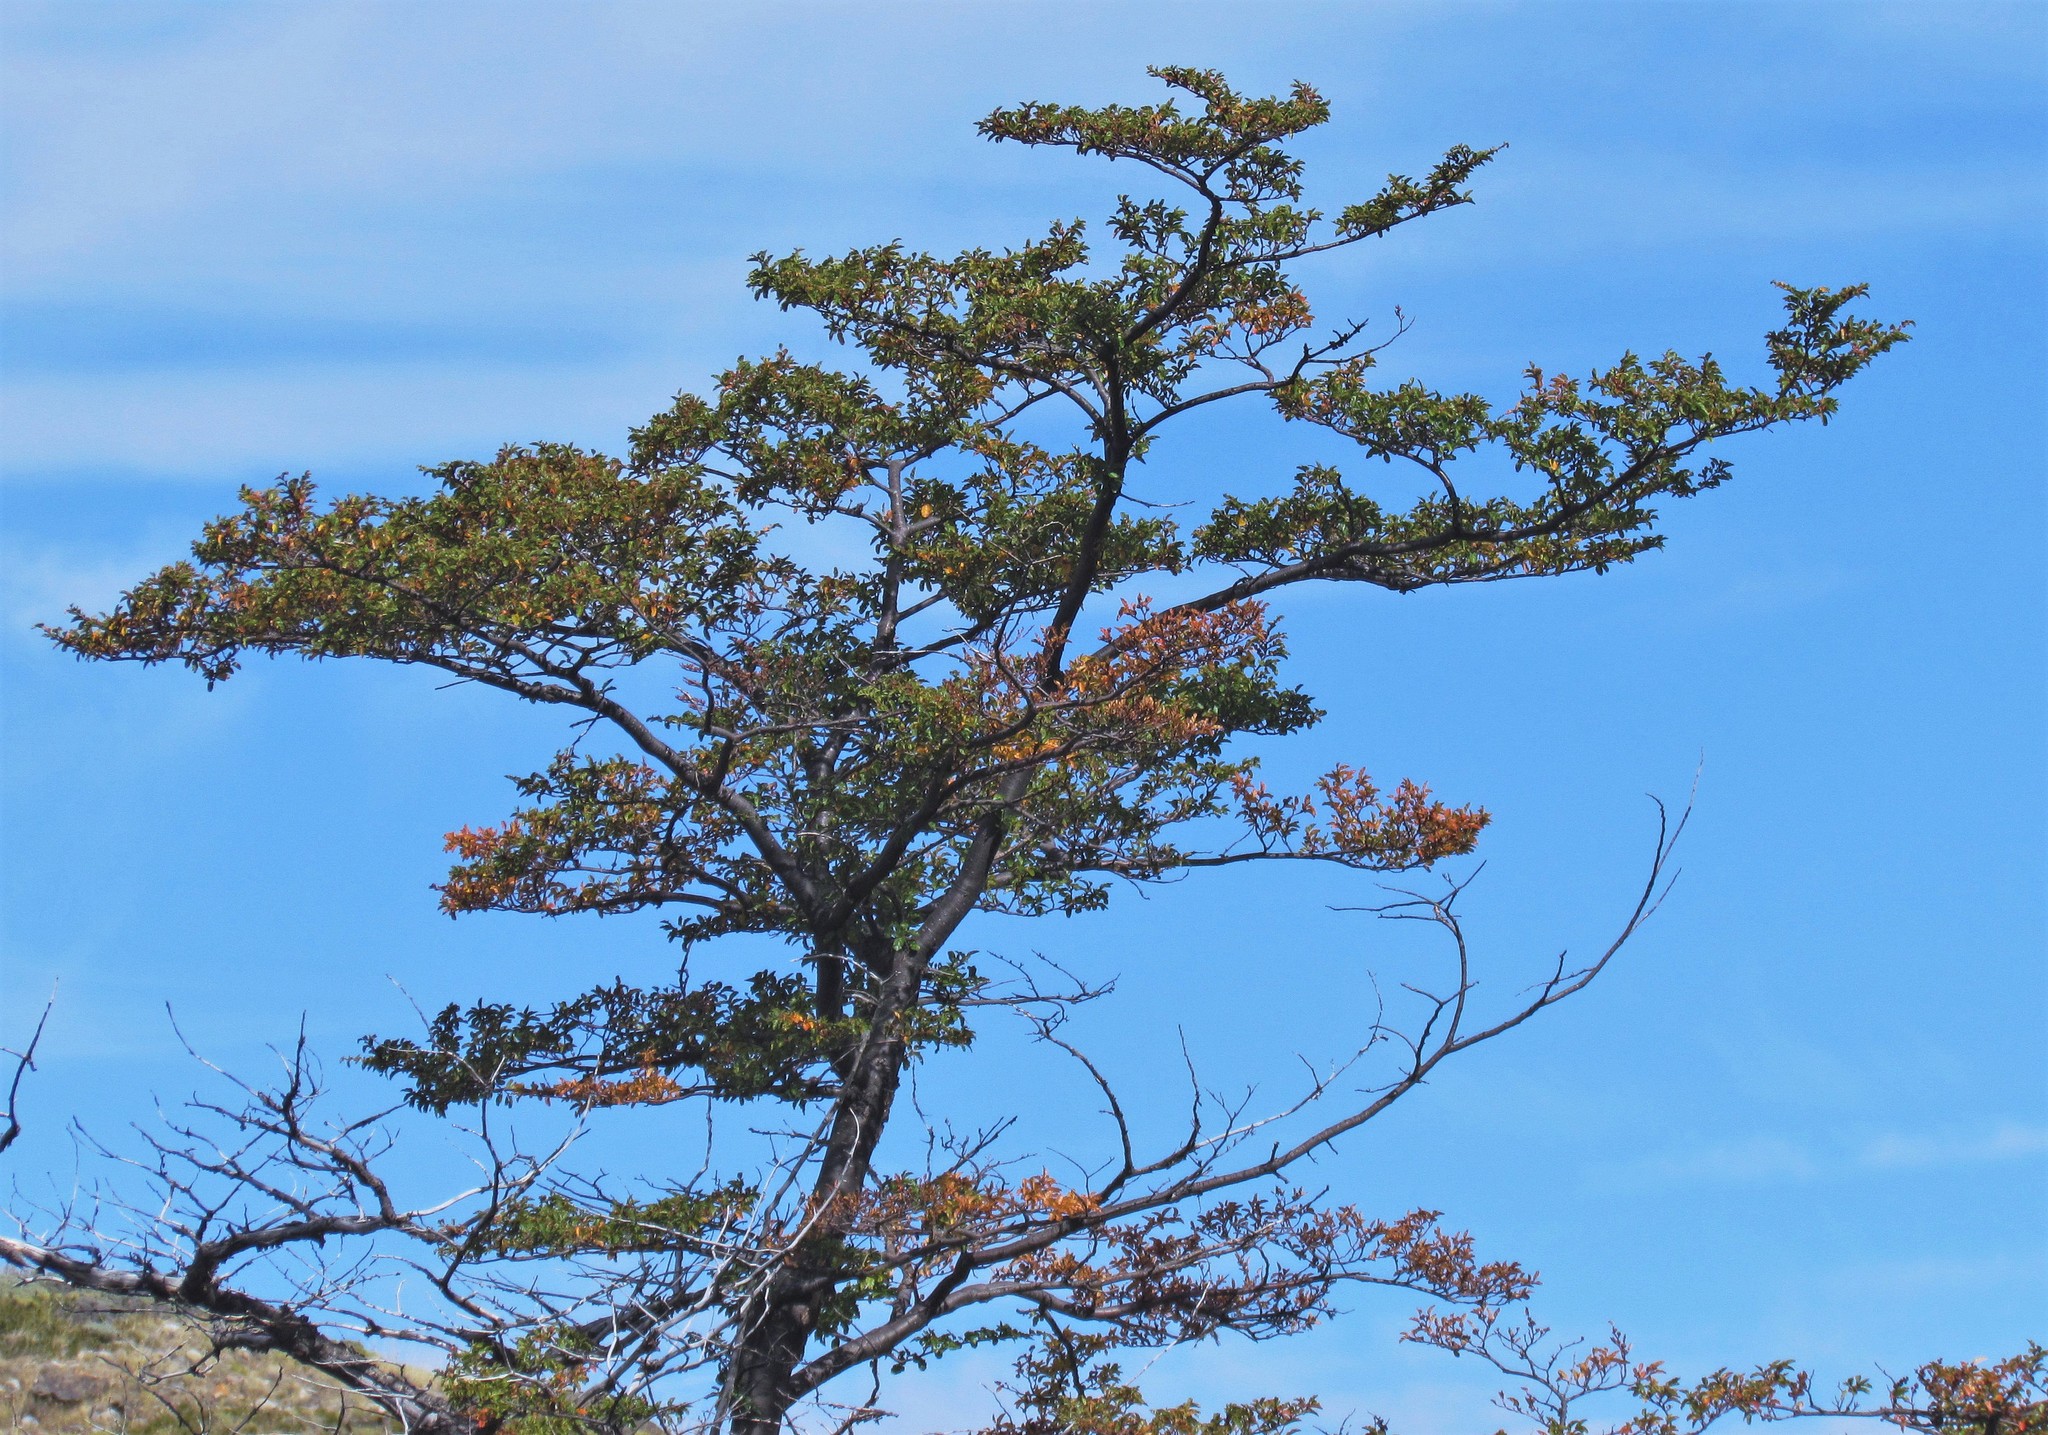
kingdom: Plantae
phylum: Tracheophyta
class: Magnoliopsida
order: Fagales
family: Nothofagaceae
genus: Nothofagus
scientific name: Nothofagus pumilio
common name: Lenga beech
